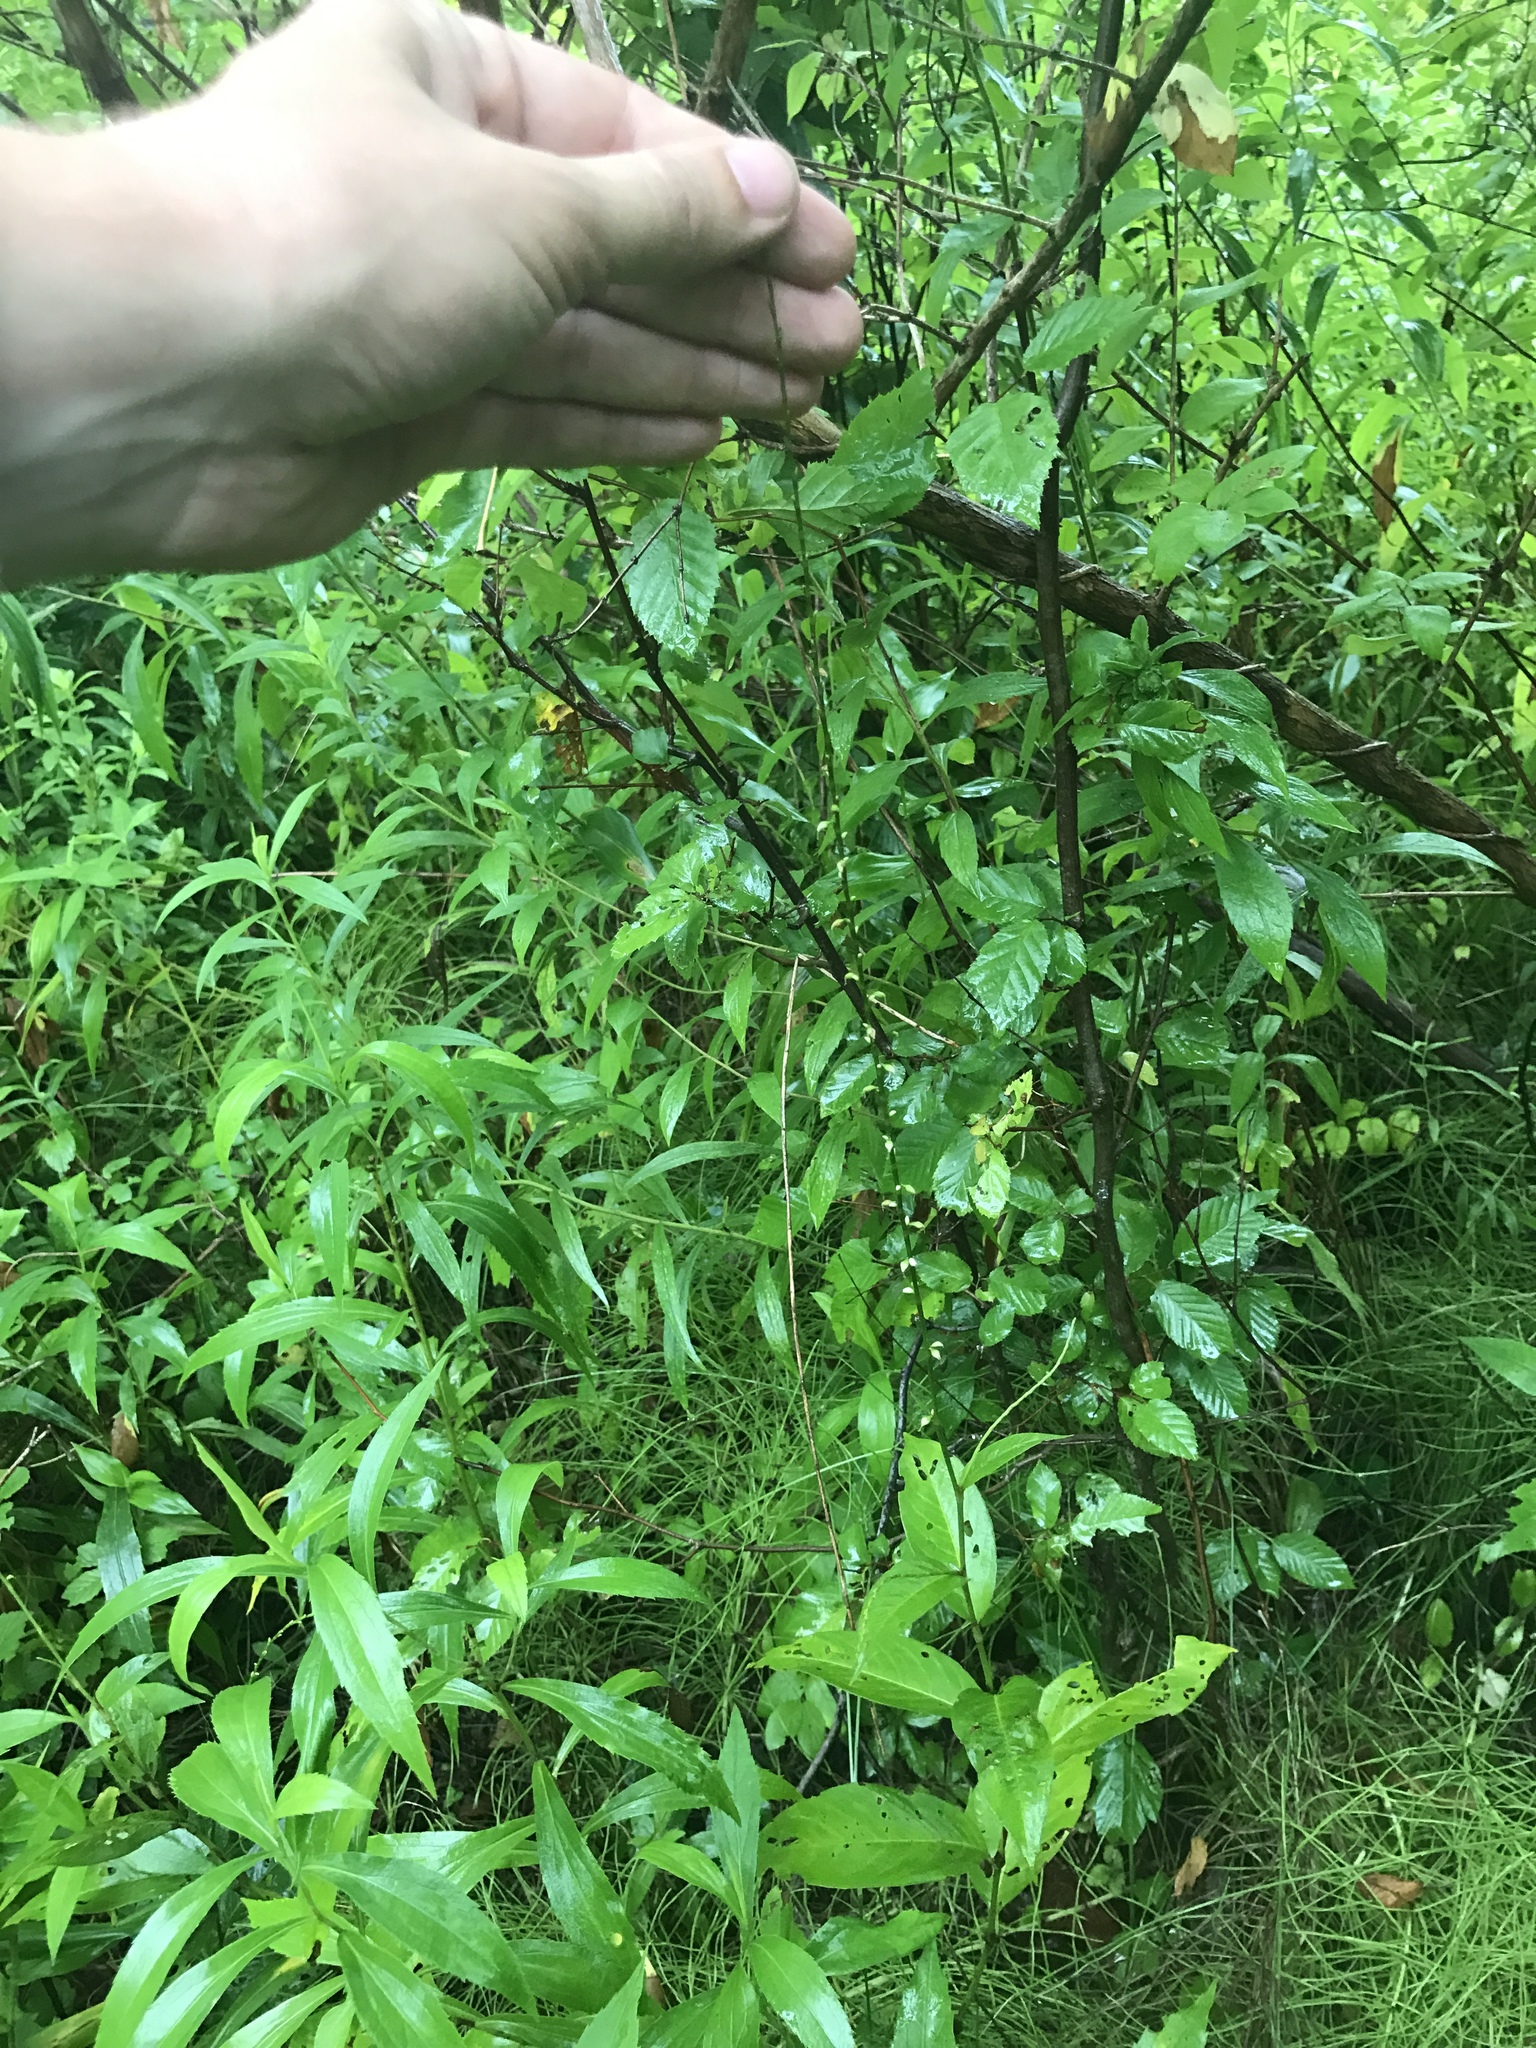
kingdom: Plantae
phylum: Tracheophyta
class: Magnoliopsida
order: Caryophyllales
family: Polygonaceae
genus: Persicaria
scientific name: Persicaria virginiana
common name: Jumpseed
